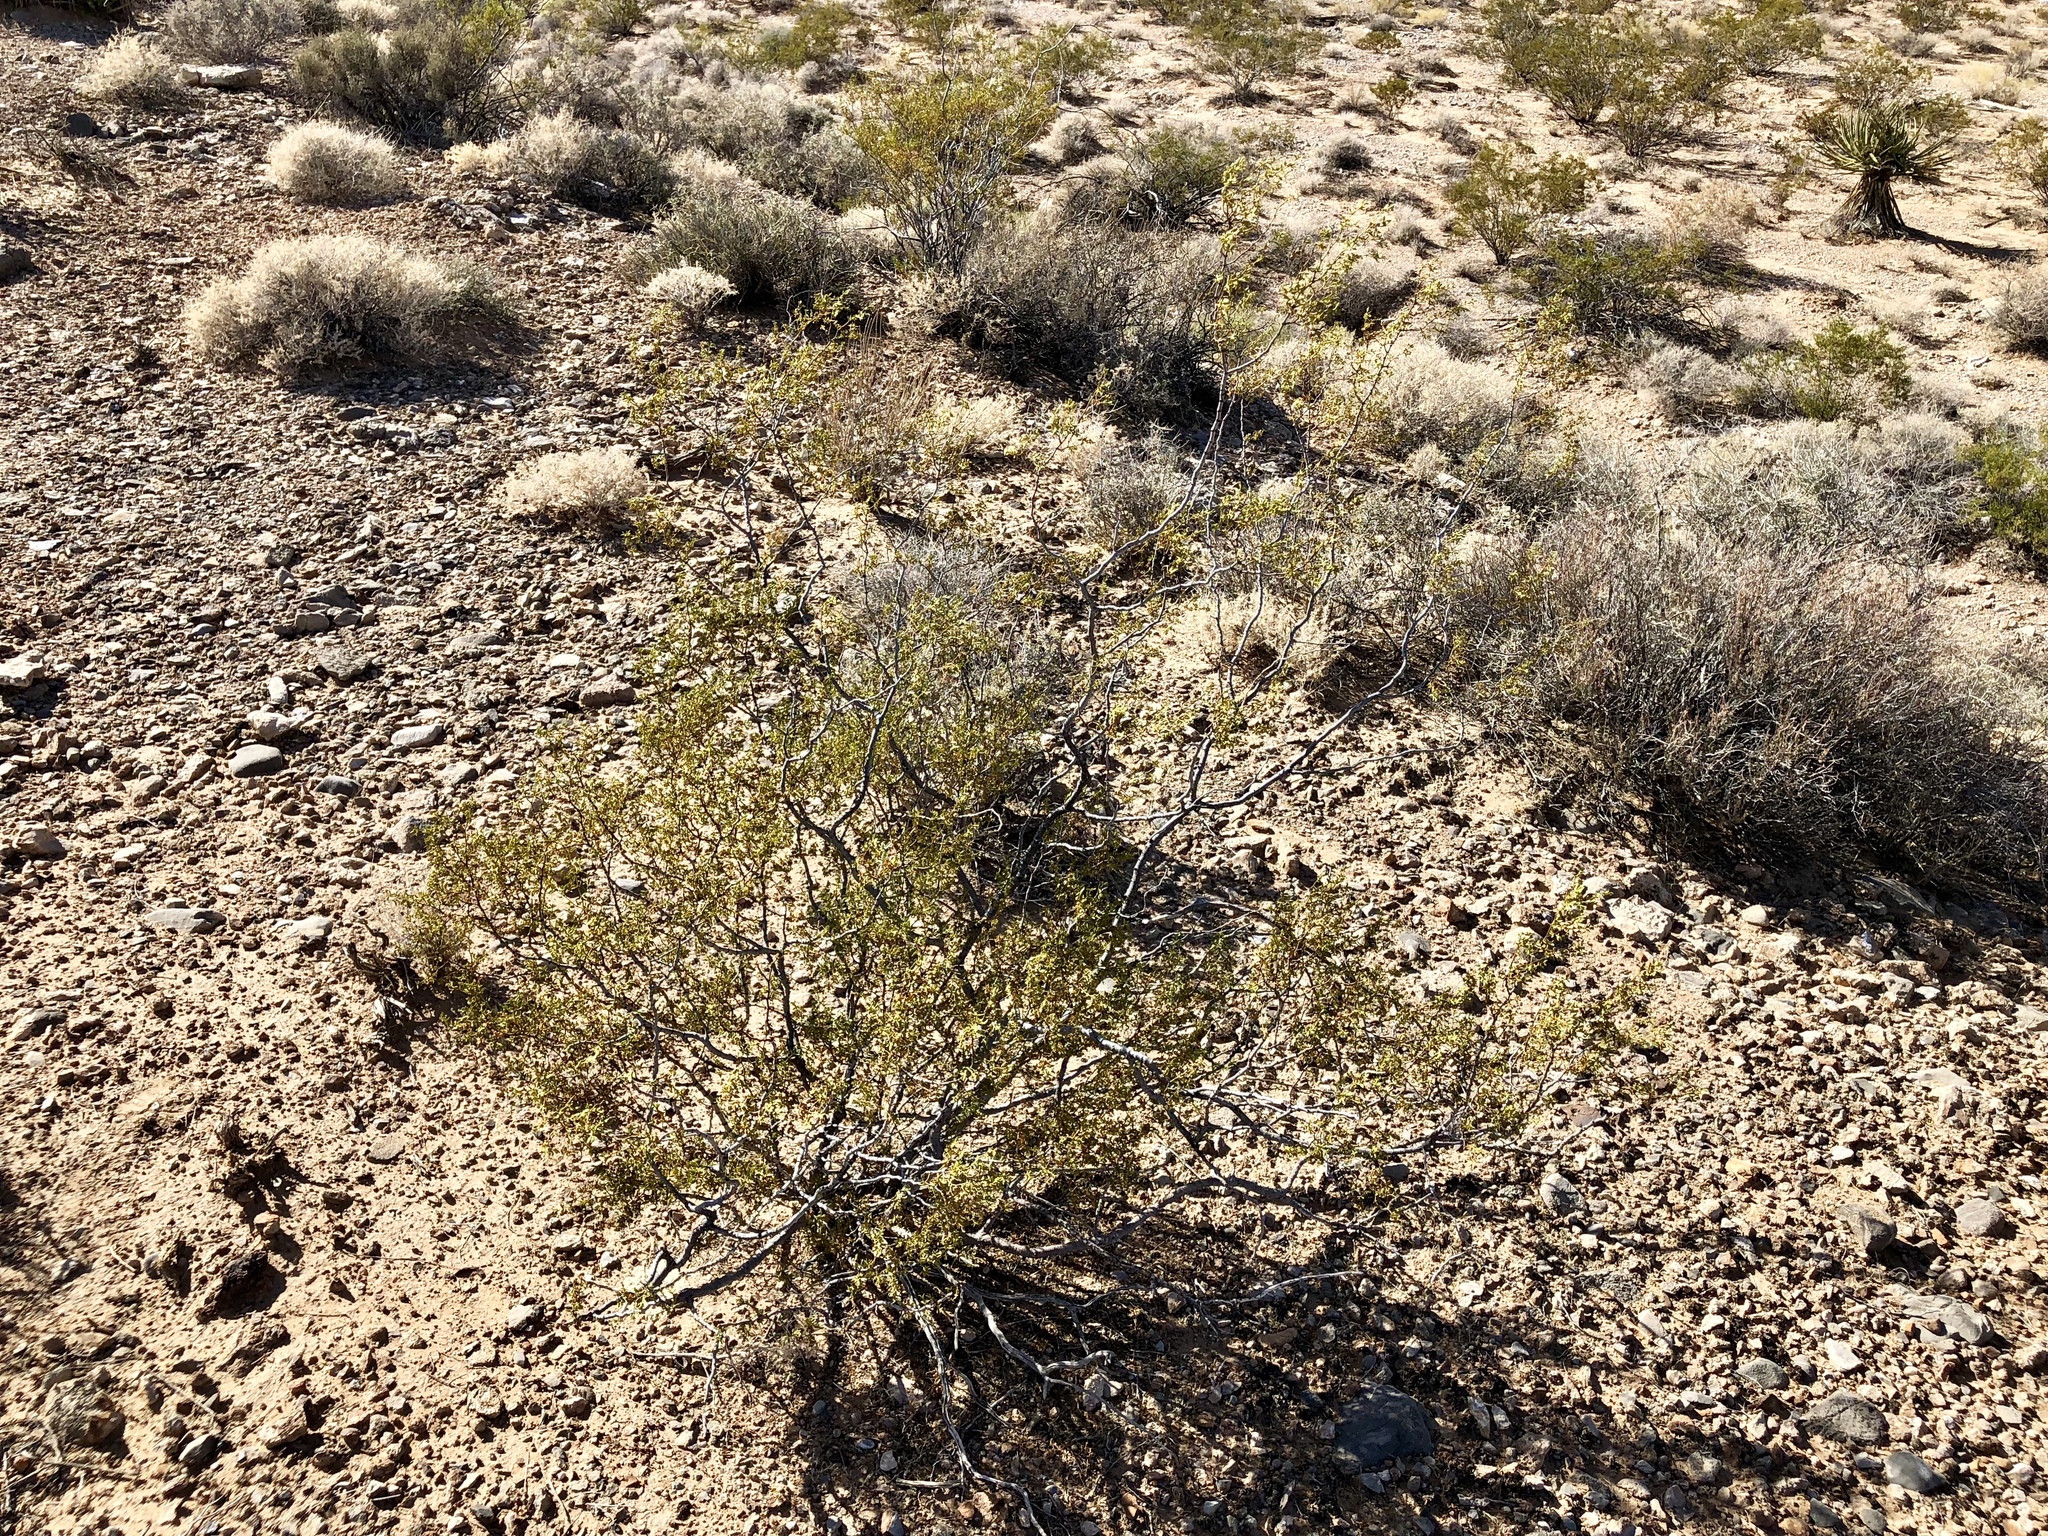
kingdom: Plantae
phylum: Tracheophyta
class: Magnoliopsida
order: Zygophyllales
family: Zygophyllaceae
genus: Larrea
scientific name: Larrea tridentata
